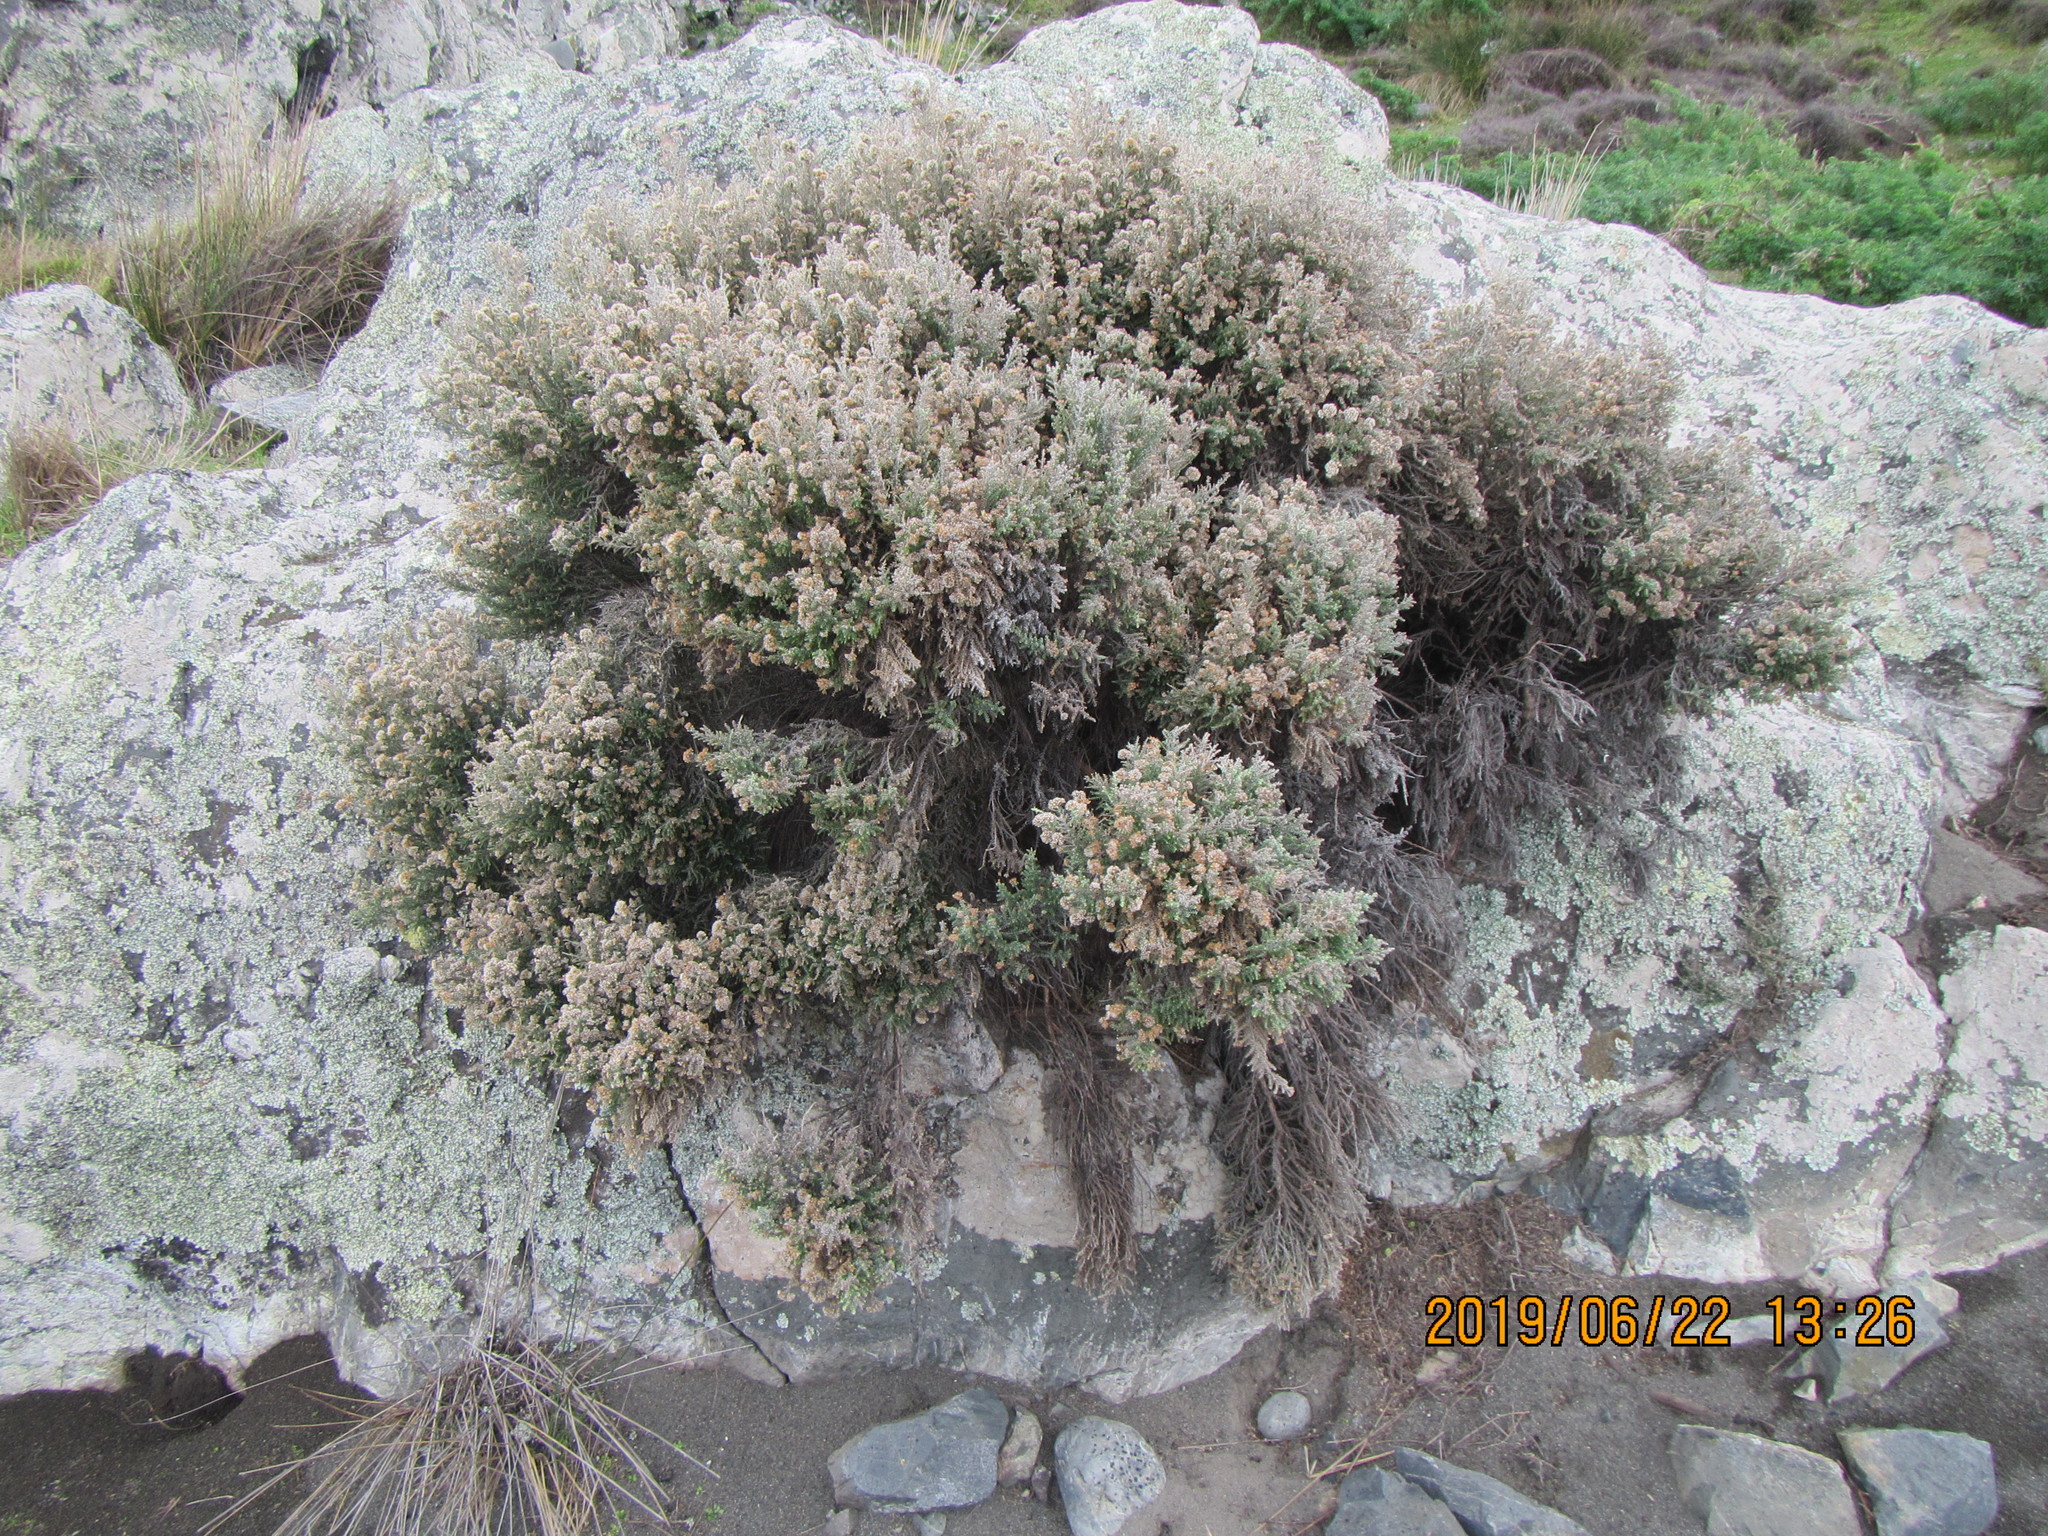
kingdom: Plantae
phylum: Tracheophyta
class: Magnoliopsida
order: Asterales
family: Asteraceae
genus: Ozothamnus
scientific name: Ozothamnus leptophyllus
